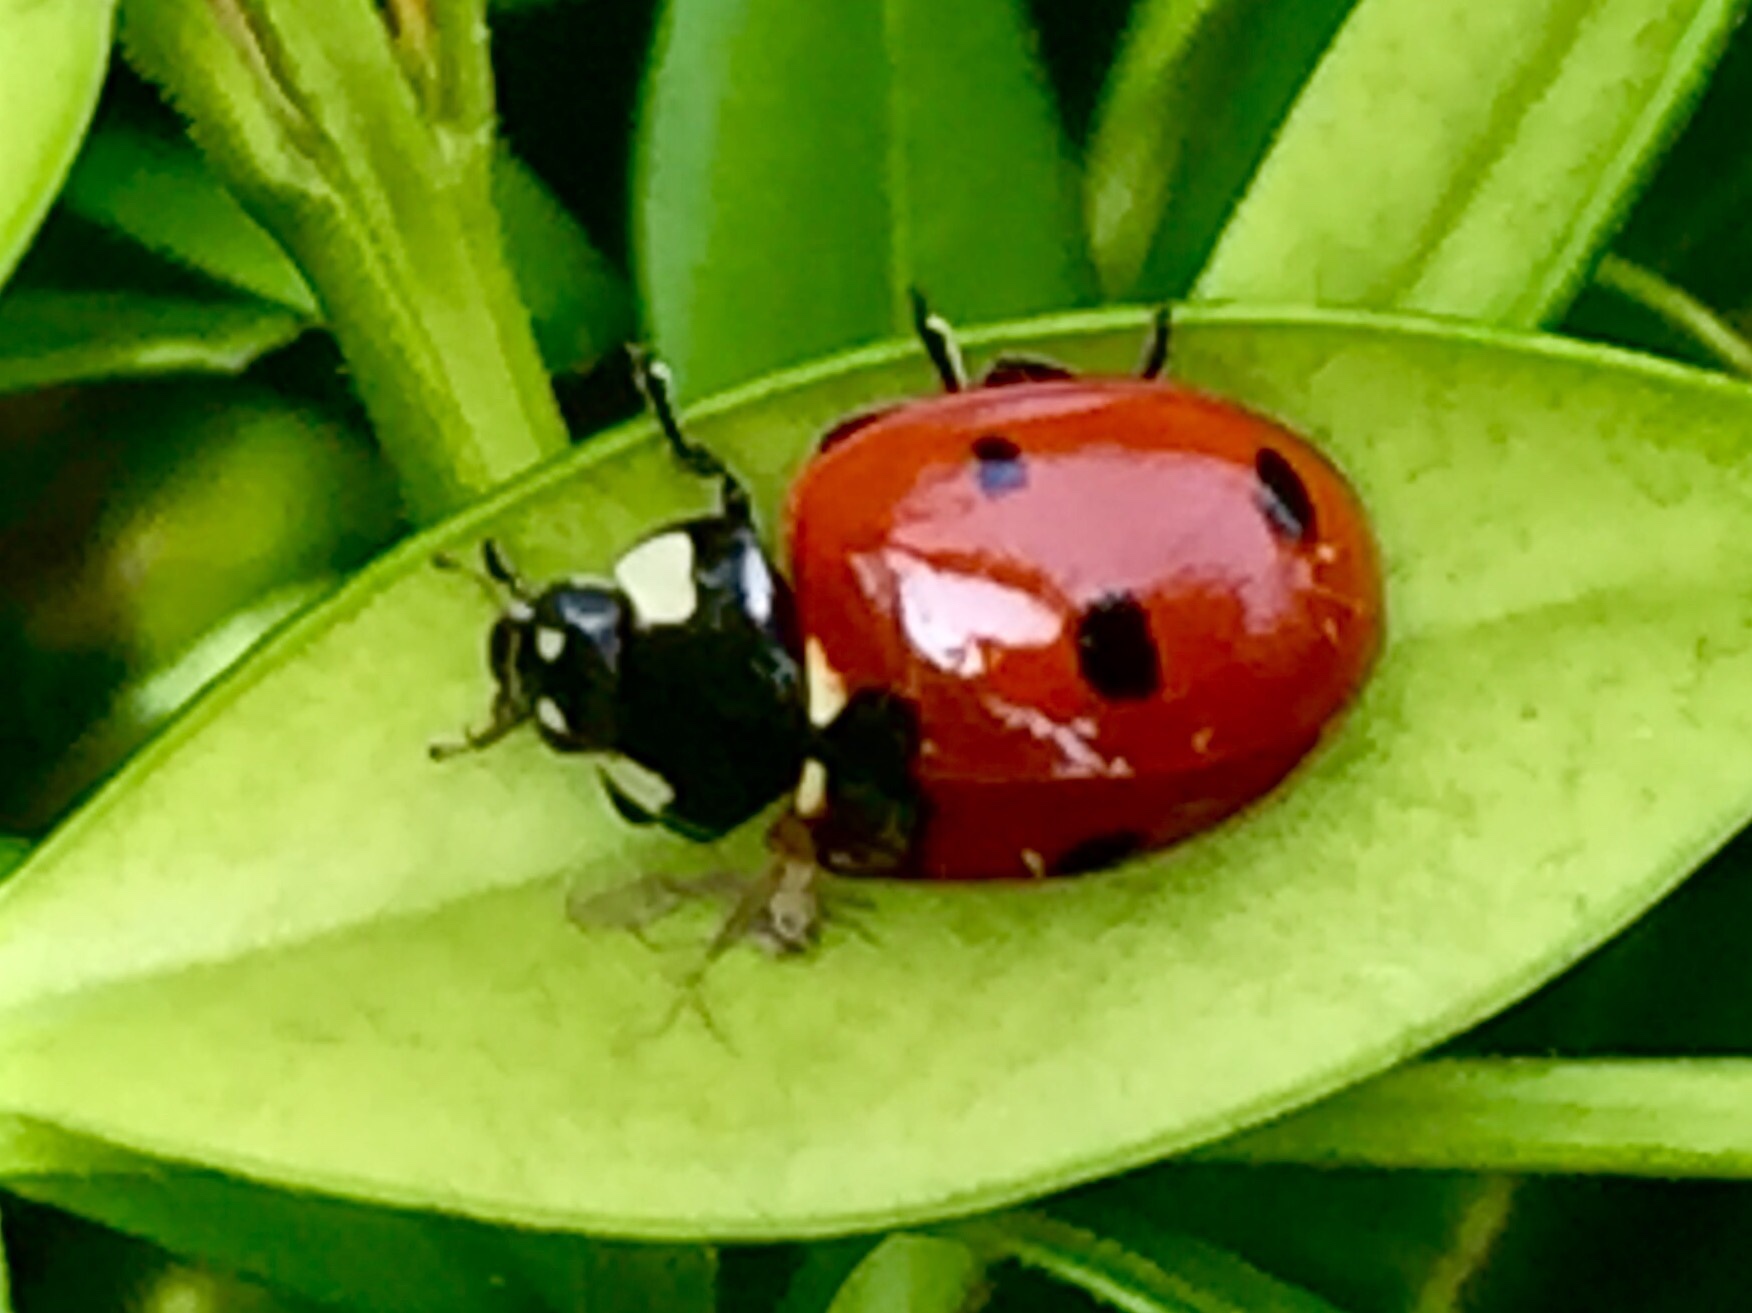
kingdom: Animalia
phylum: Arthropoda
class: Insecta
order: Coleoptera
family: Coccinellidae
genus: Coccinella
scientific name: Coccinella septempunctata
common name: Sevenspotted lady beetle
